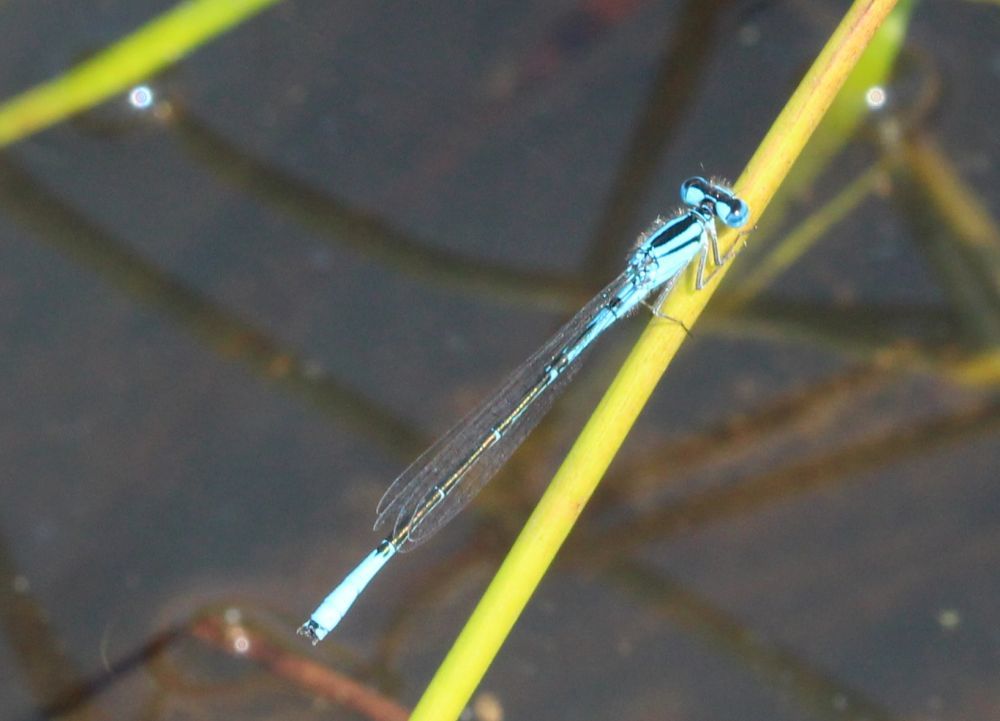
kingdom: Animalia
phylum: Arthropoda
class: Insecta
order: Odonata
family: Coenagrionidae
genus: Enallagma
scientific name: Enallagma aspersum
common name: Azure bluet
